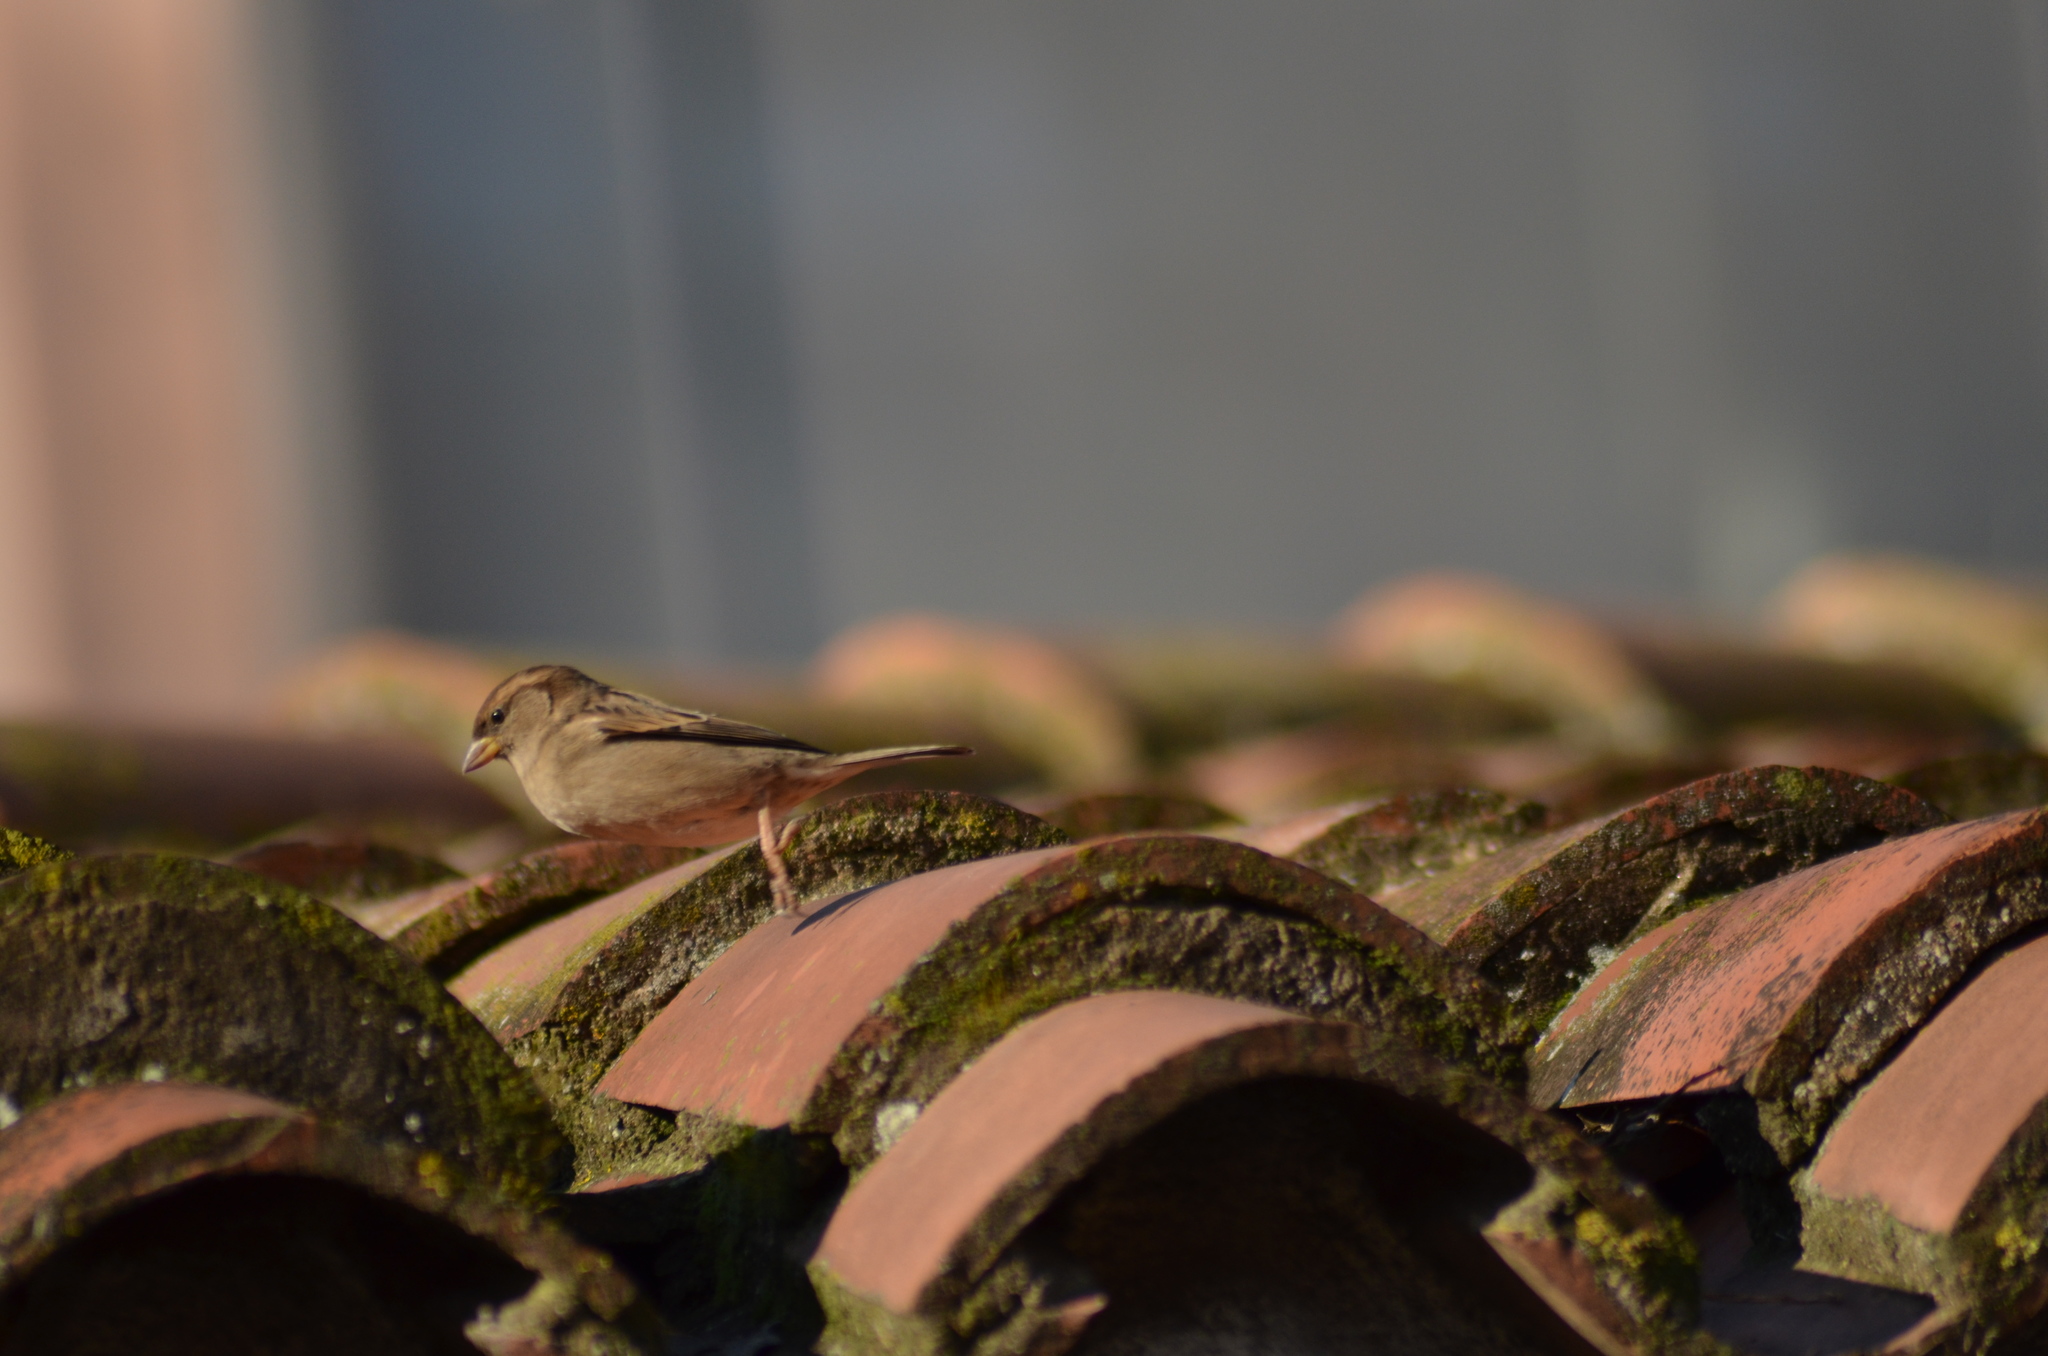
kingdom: Animalia
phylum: Chordata
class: Aves
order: Passeriformes
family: Passeridae
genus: Passer
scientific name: Passer domesticus
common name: House sparrow
